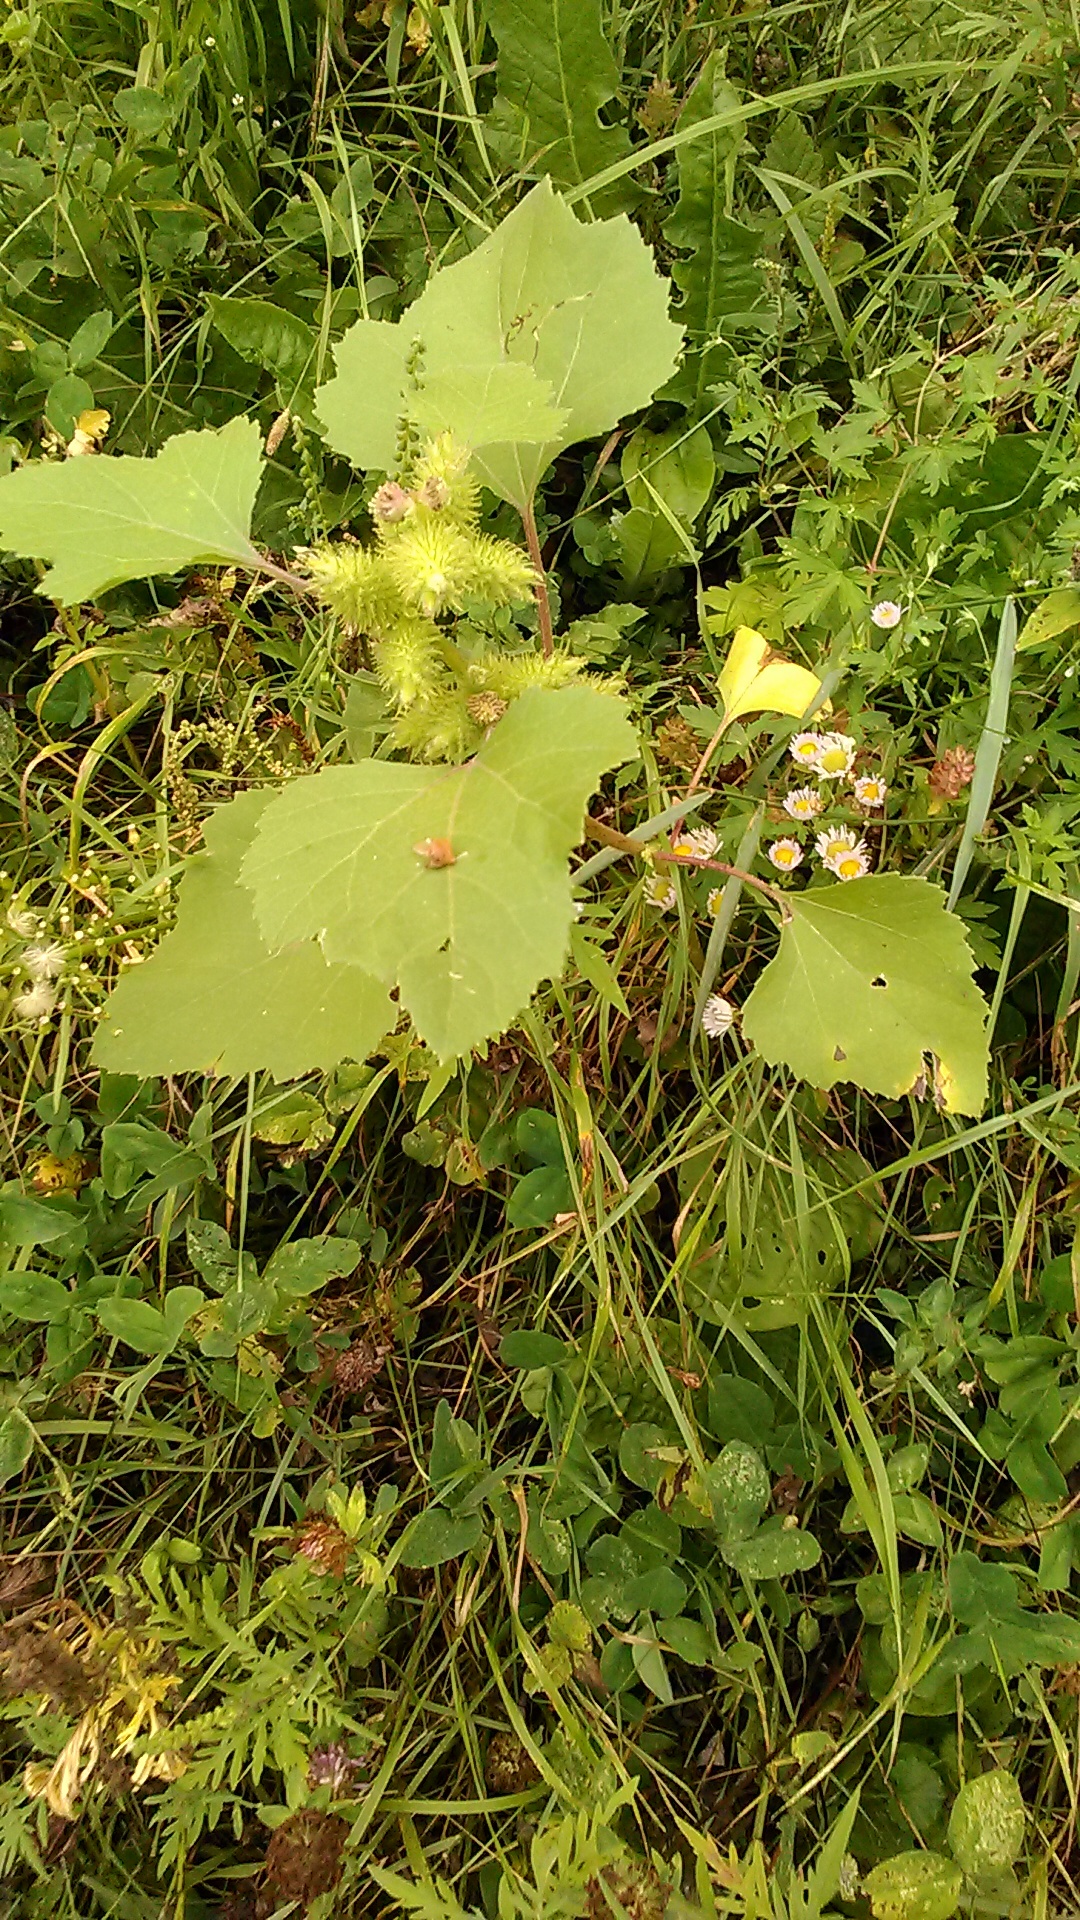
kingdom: Plantae
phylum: Tracheophyta
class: Magnoliopsida
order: Asterales
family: Asteraceae
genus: Xanthium
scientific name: Xanthium orientale
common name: Californian burr
